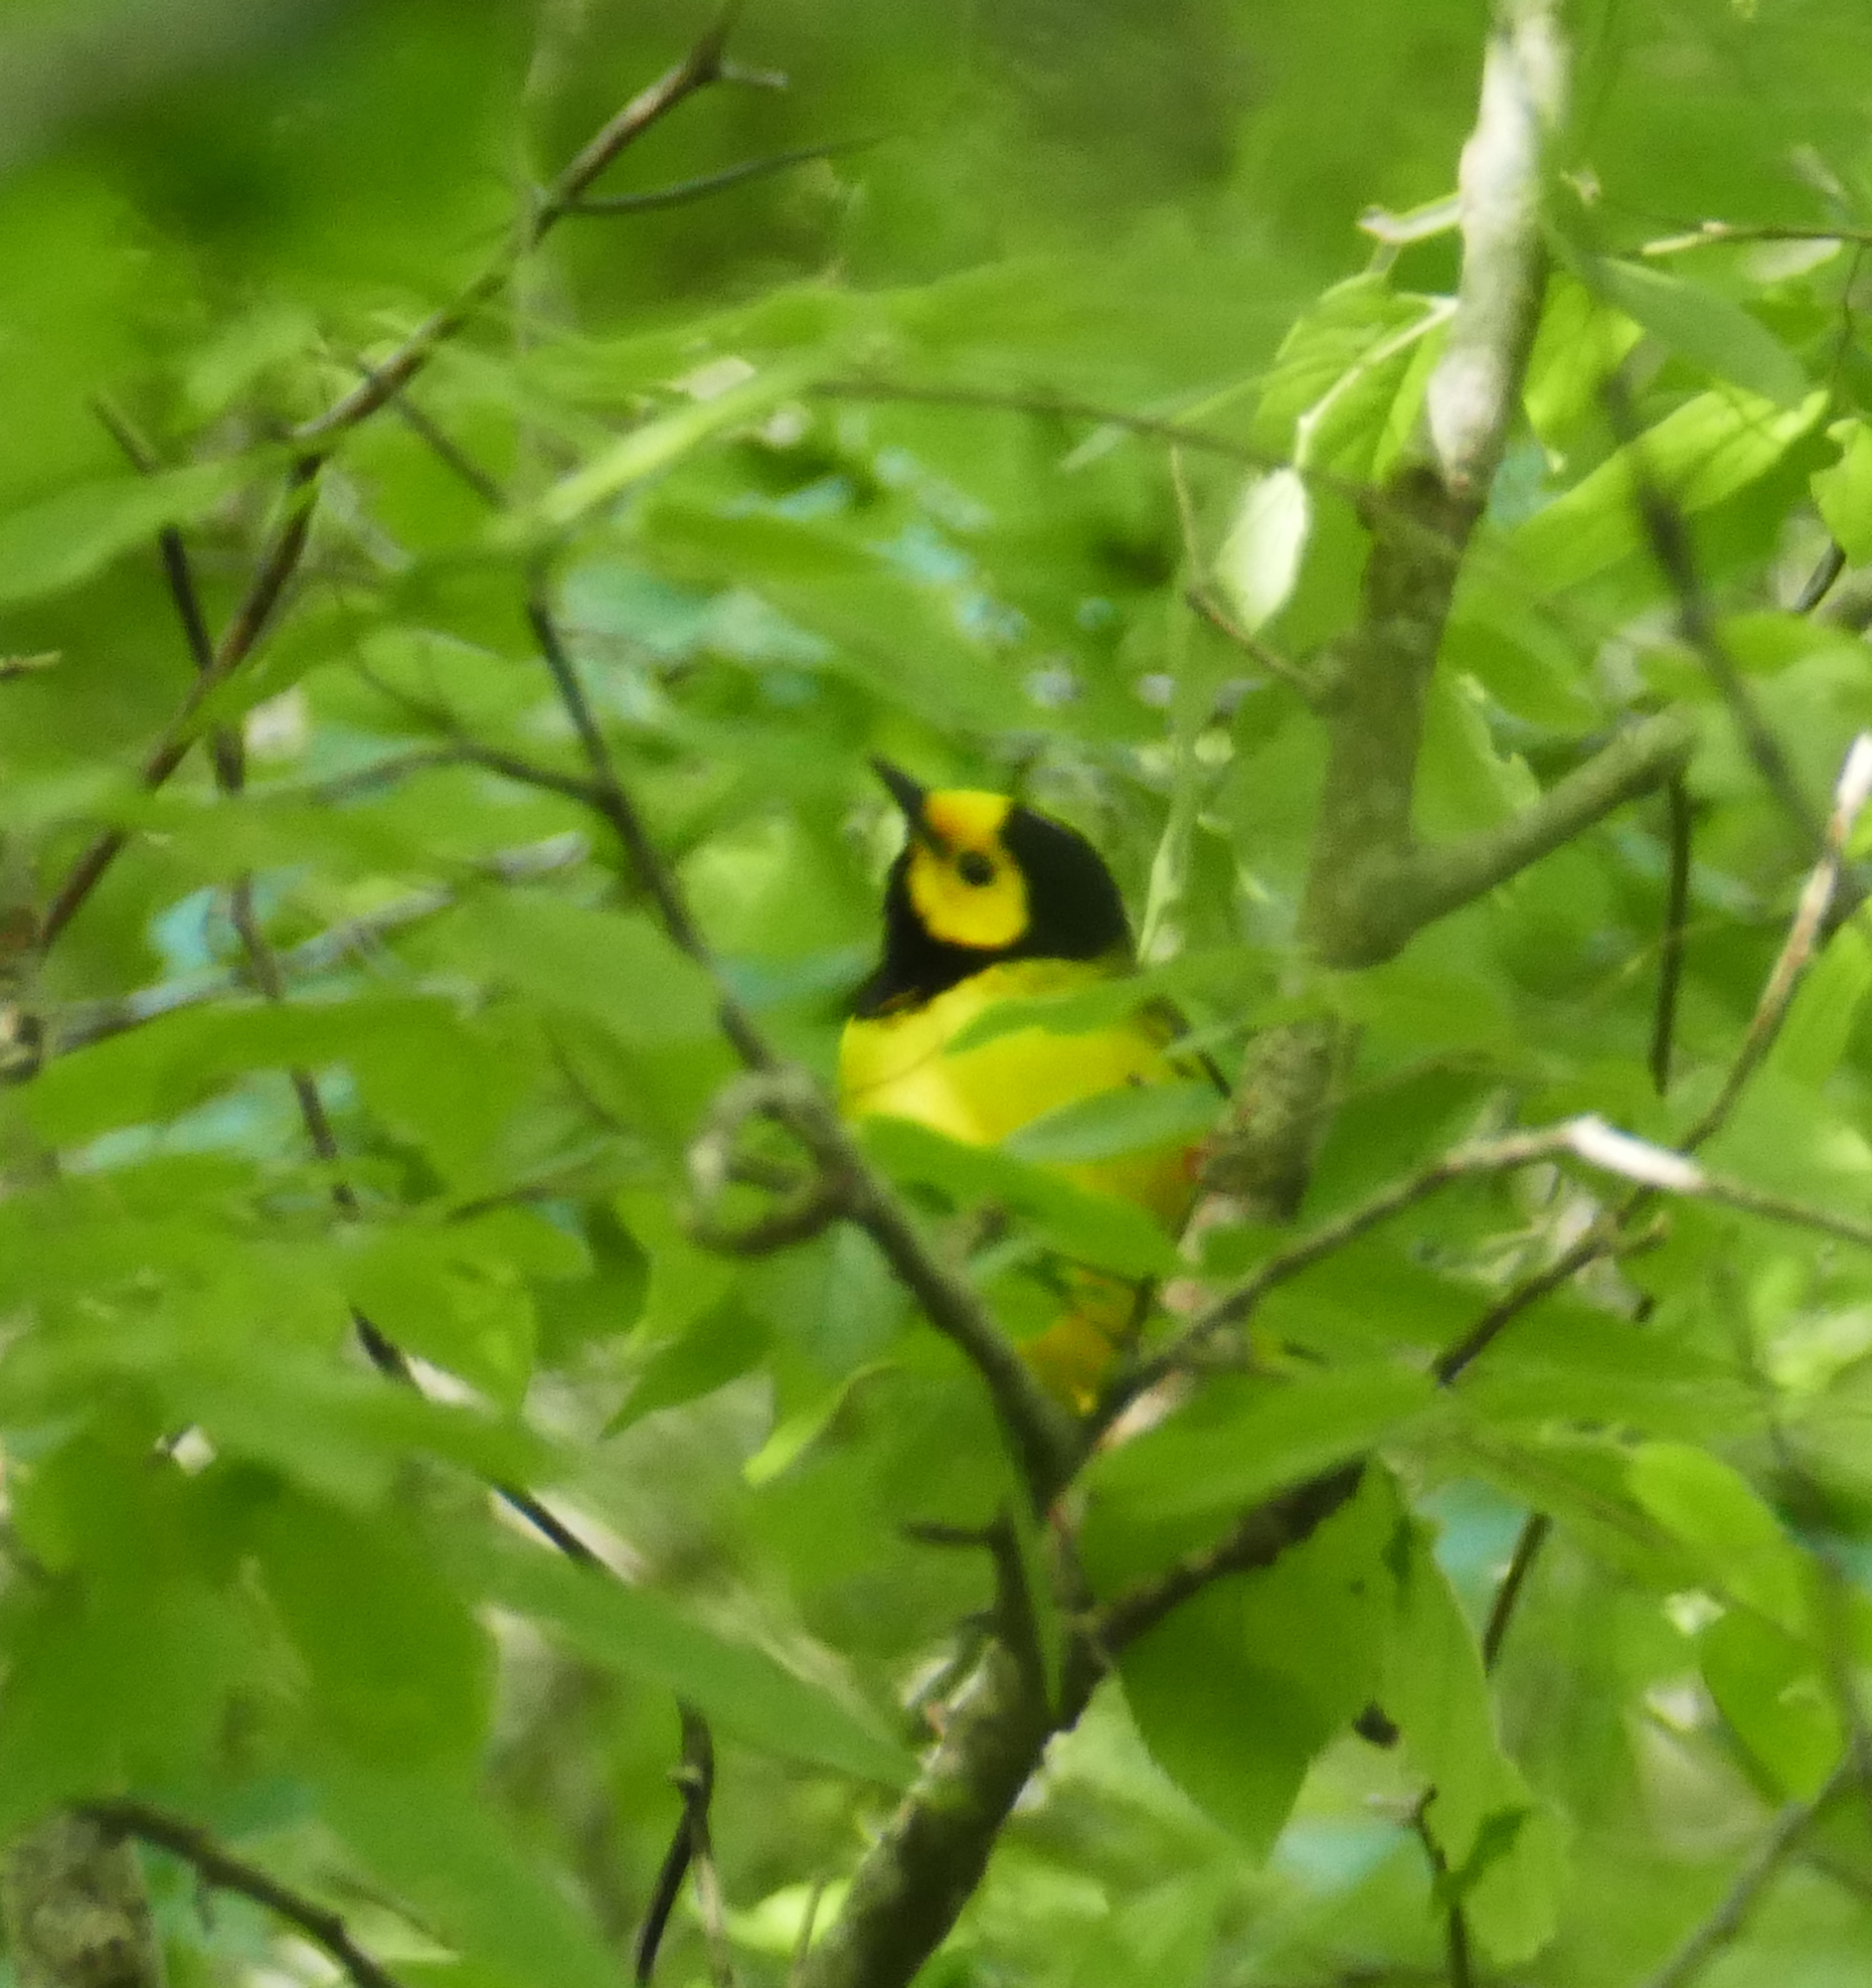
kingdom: Animalia
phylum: Chordata
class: Aves
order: Passeriformes
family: Parulidae
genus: Setophaga
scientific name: Setophaga citrina
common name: Hooded warbler
